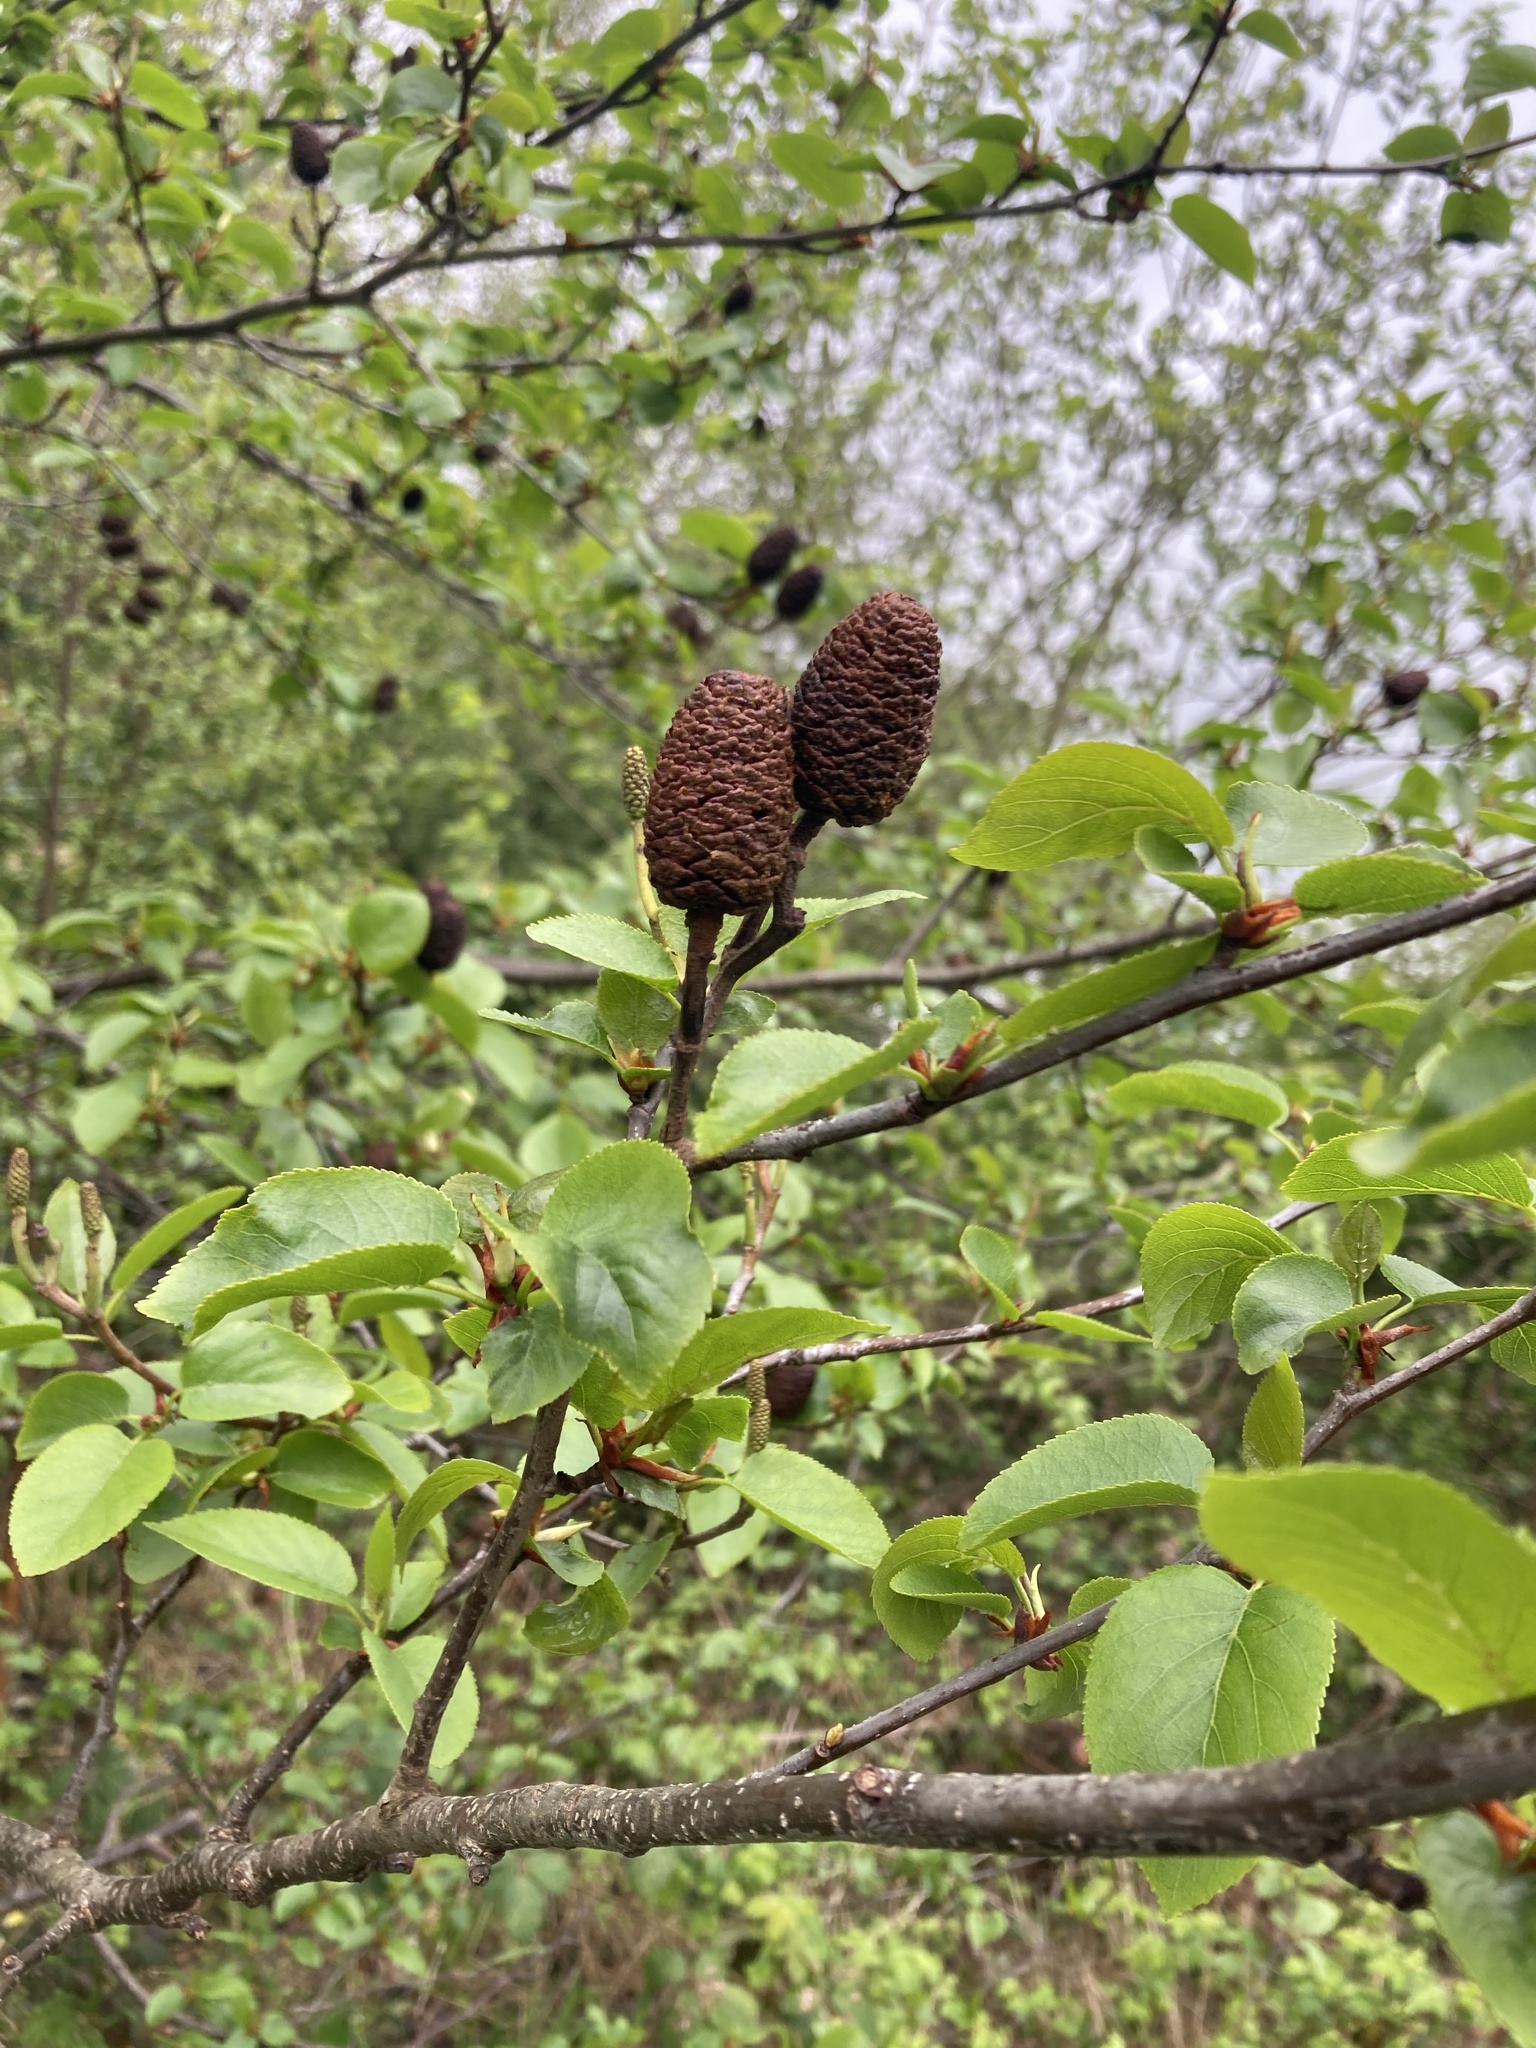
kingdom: Plantae
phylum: Tracheophyta
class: Magnoliopsida
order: Fagales
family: Betulaceae
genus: Alnus
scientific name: Alnus cordata
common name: Italian alder
